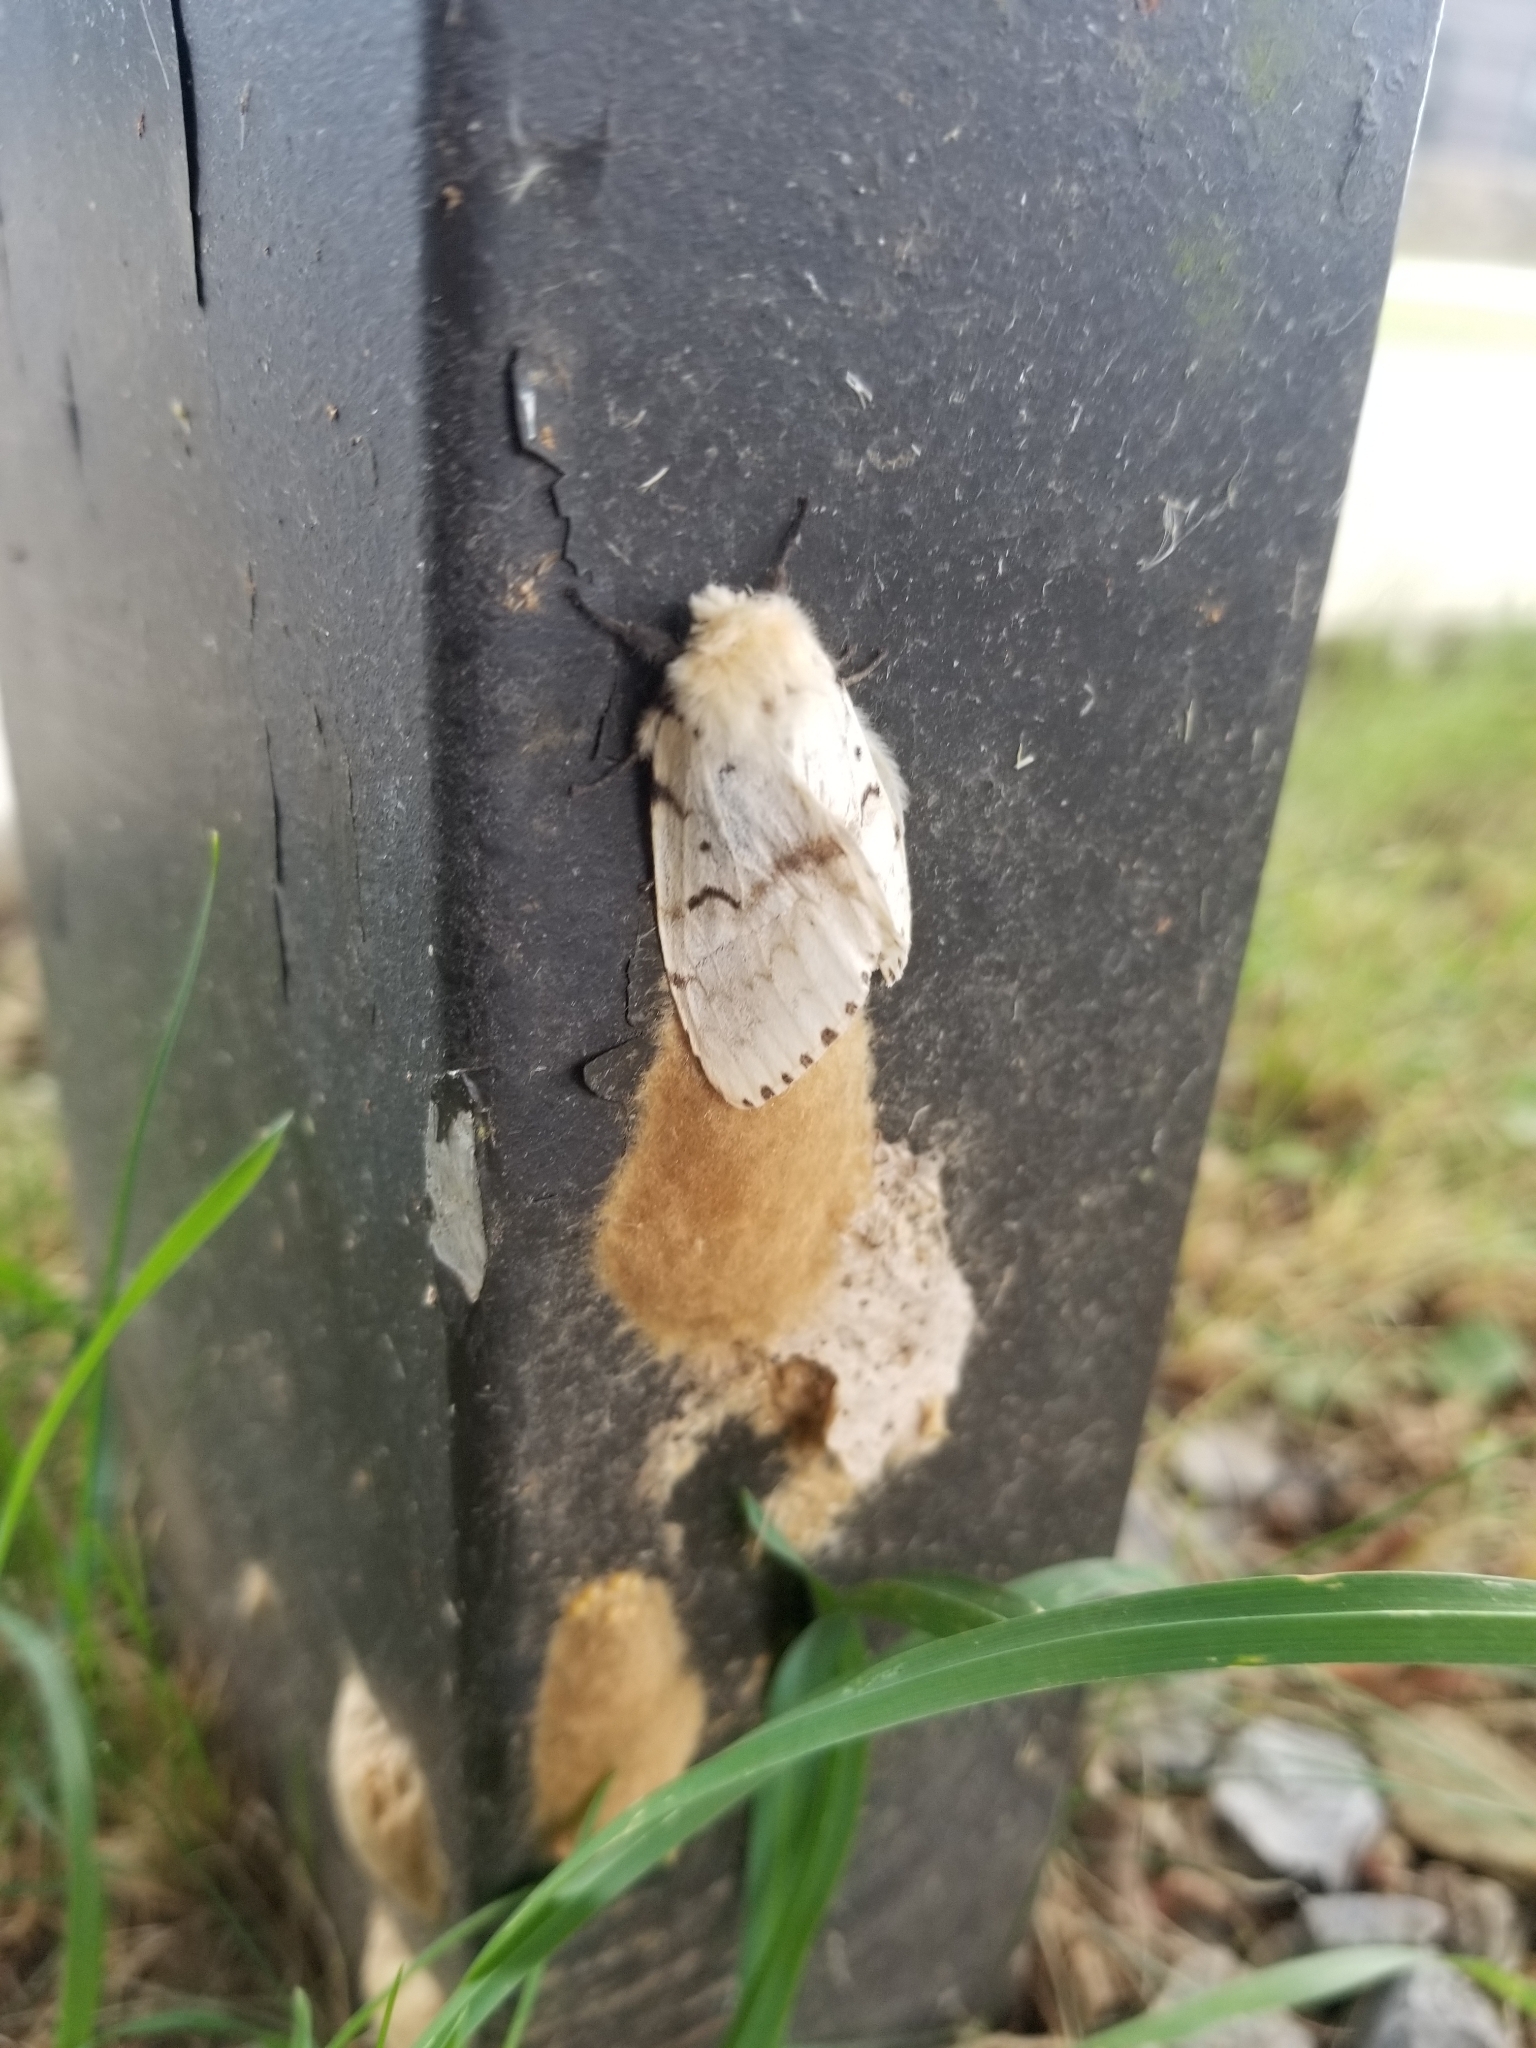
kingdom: Animalia
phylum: Arthropoda
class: Insecta
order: Lepidoptera
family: Erebidae
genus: Lymantria
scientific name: Lymantria dispar
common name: Gypsy moth
